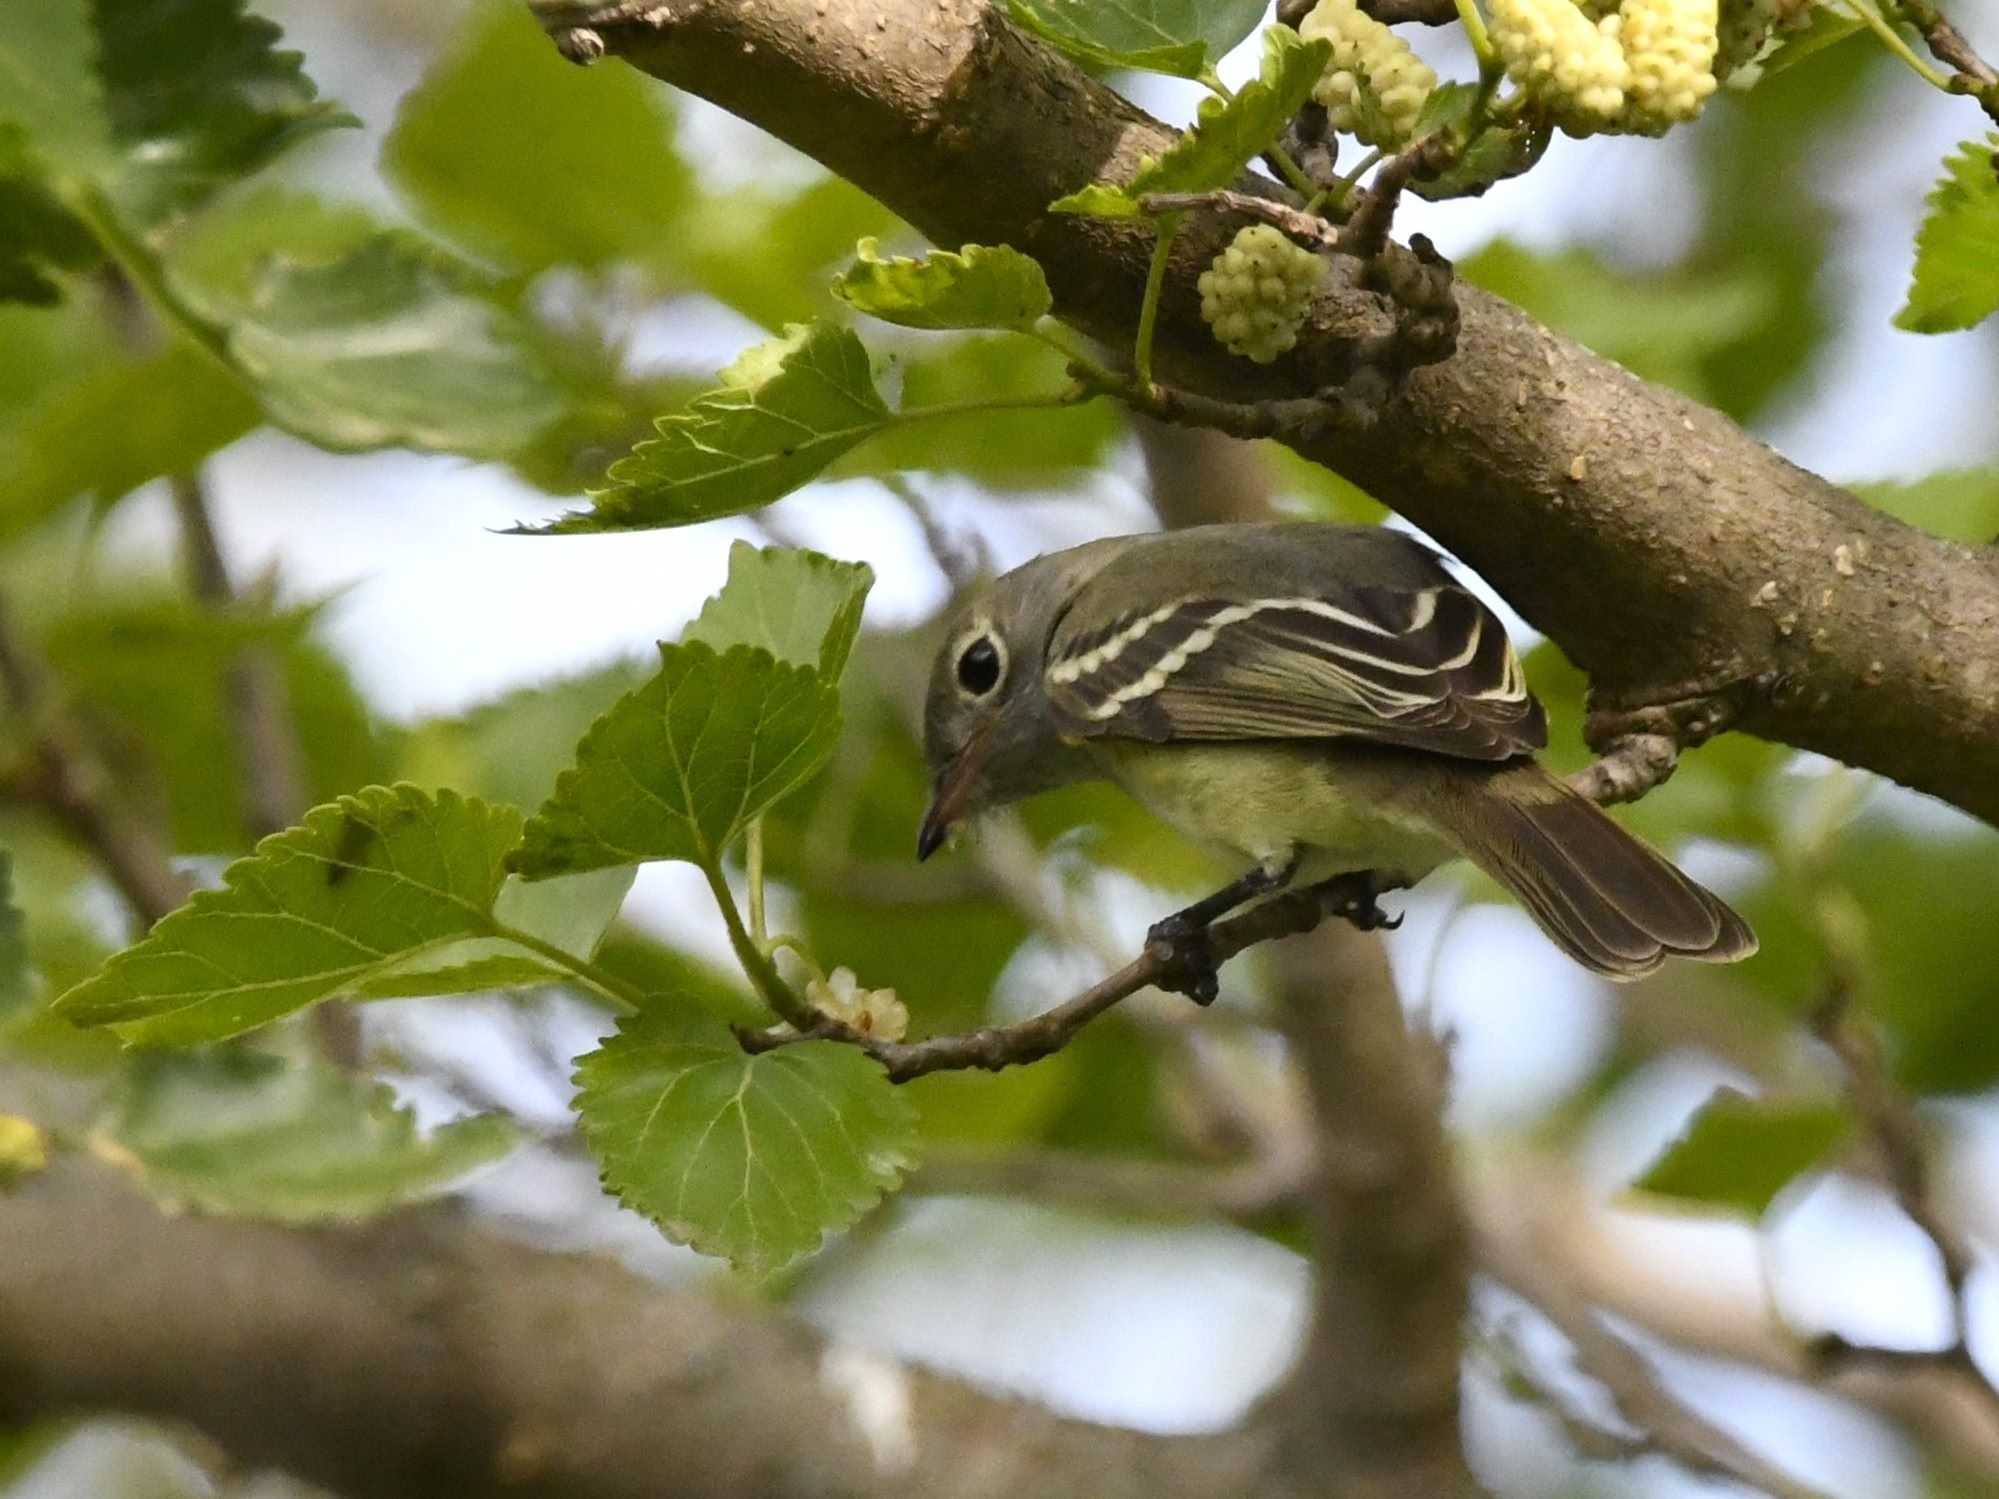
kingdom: Animalia
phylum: Chordata
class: Aves
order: Passeriformes
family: Tyrannidae
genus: Elaenia
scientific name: Elaenia parvirostris
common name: Small-billed elaenia
